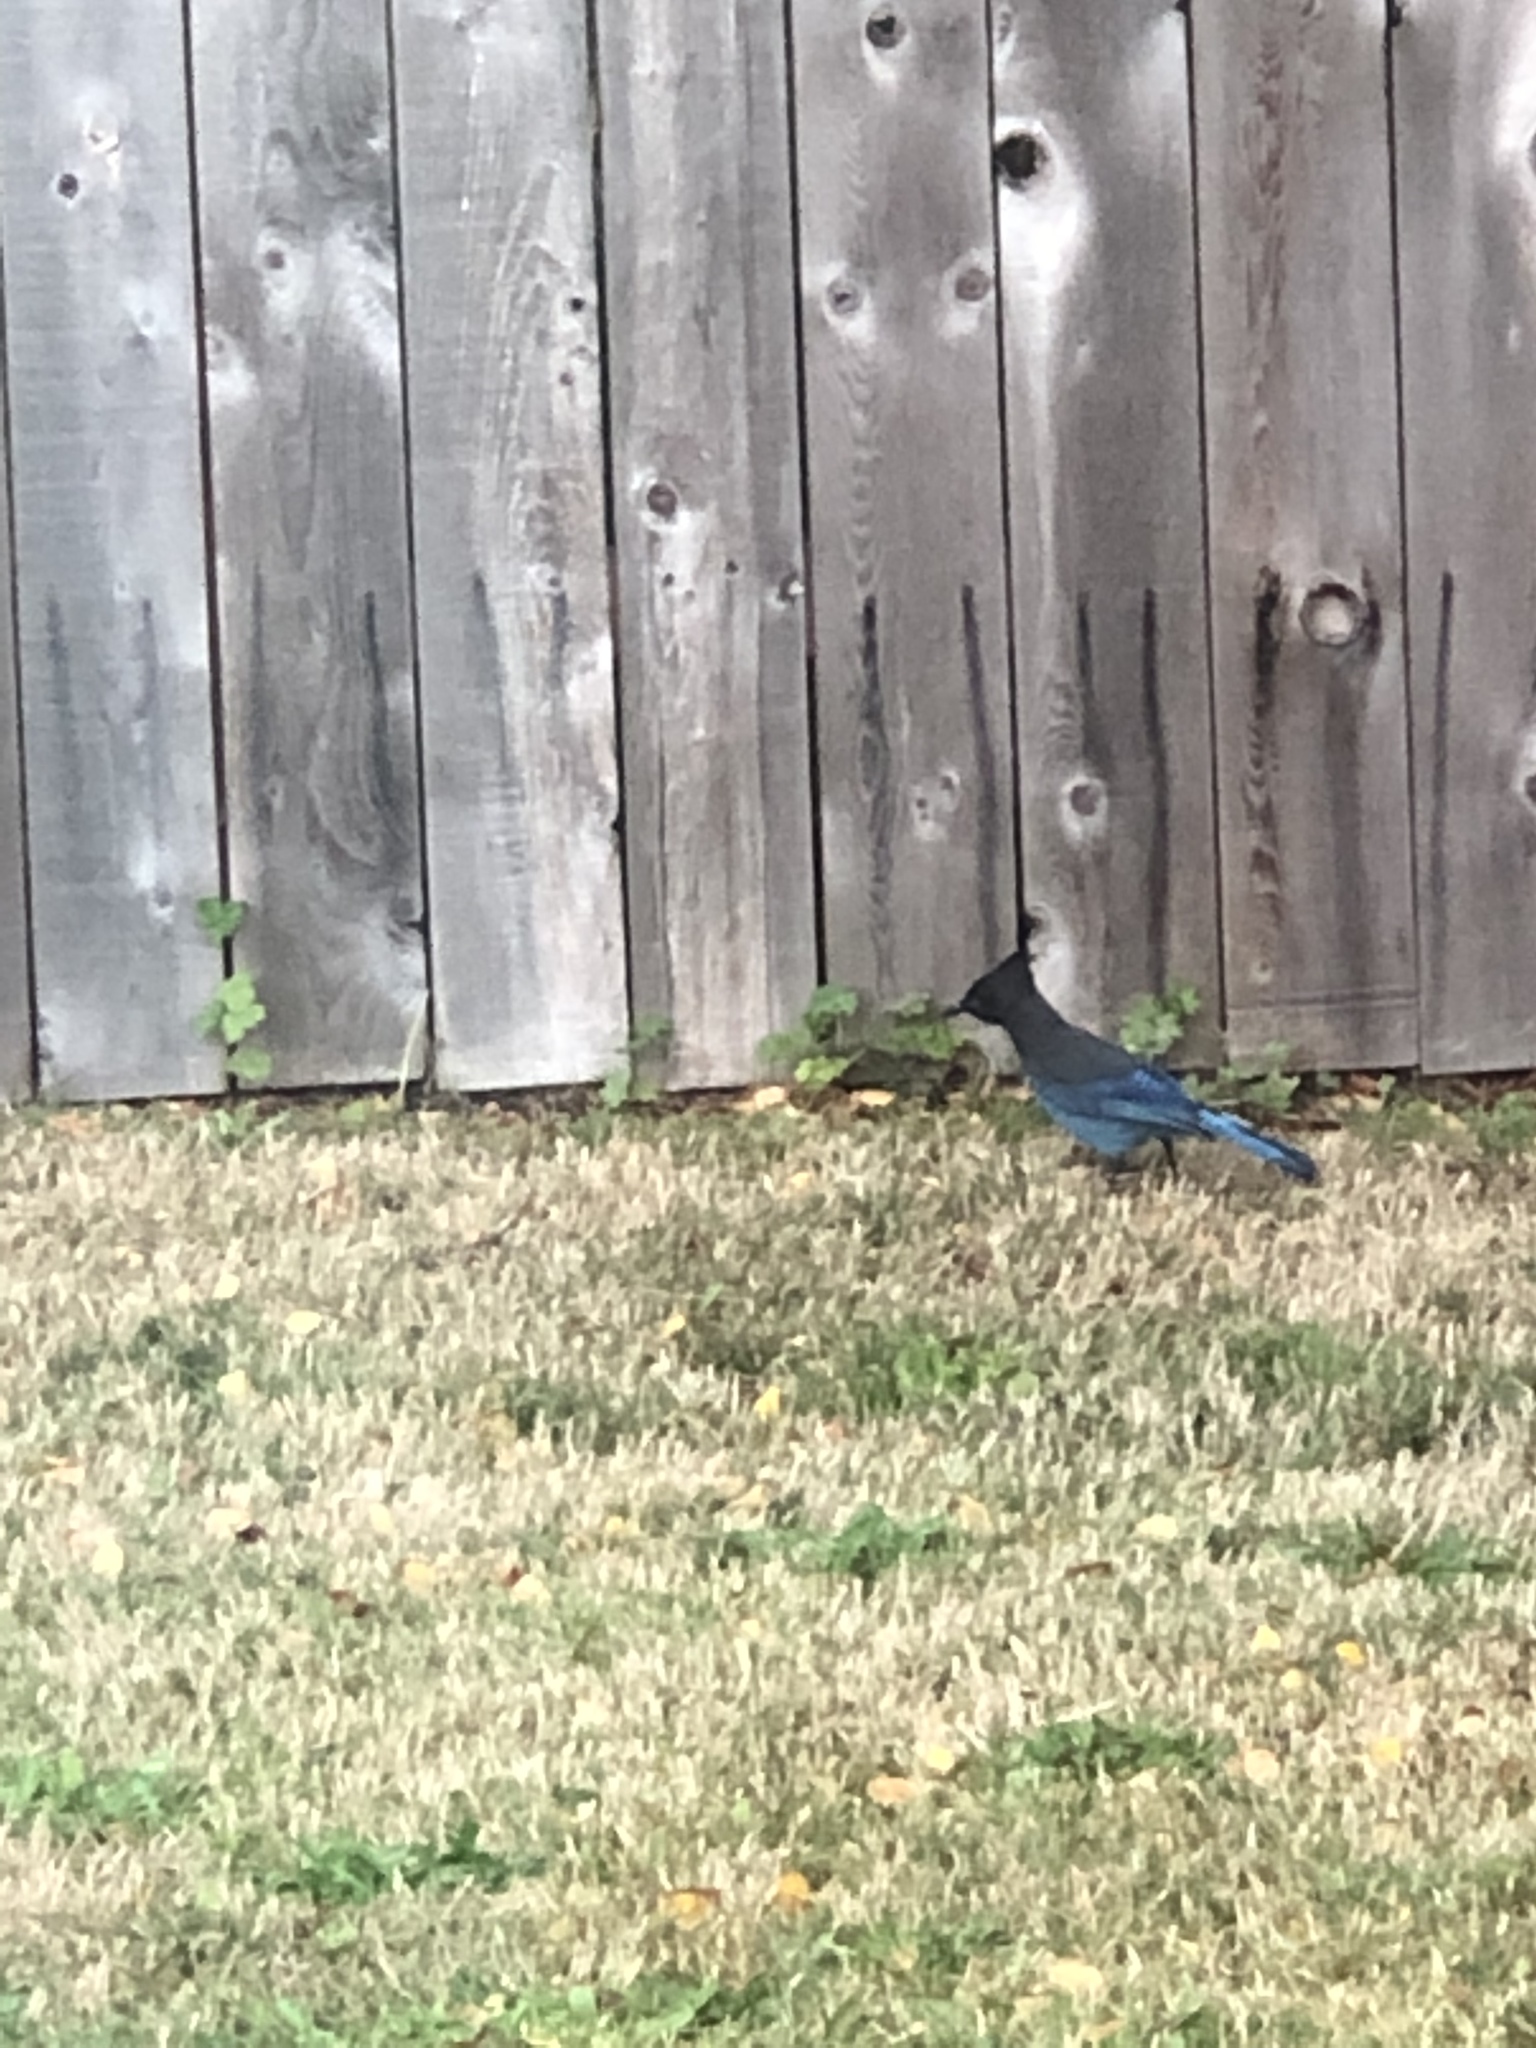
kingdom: Animalia
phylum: Chordata
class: Aves
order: Passeriformes
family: Corvidae
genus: Cyanocitta
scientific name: Cyanocitta stelleri
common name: Steller's jay
